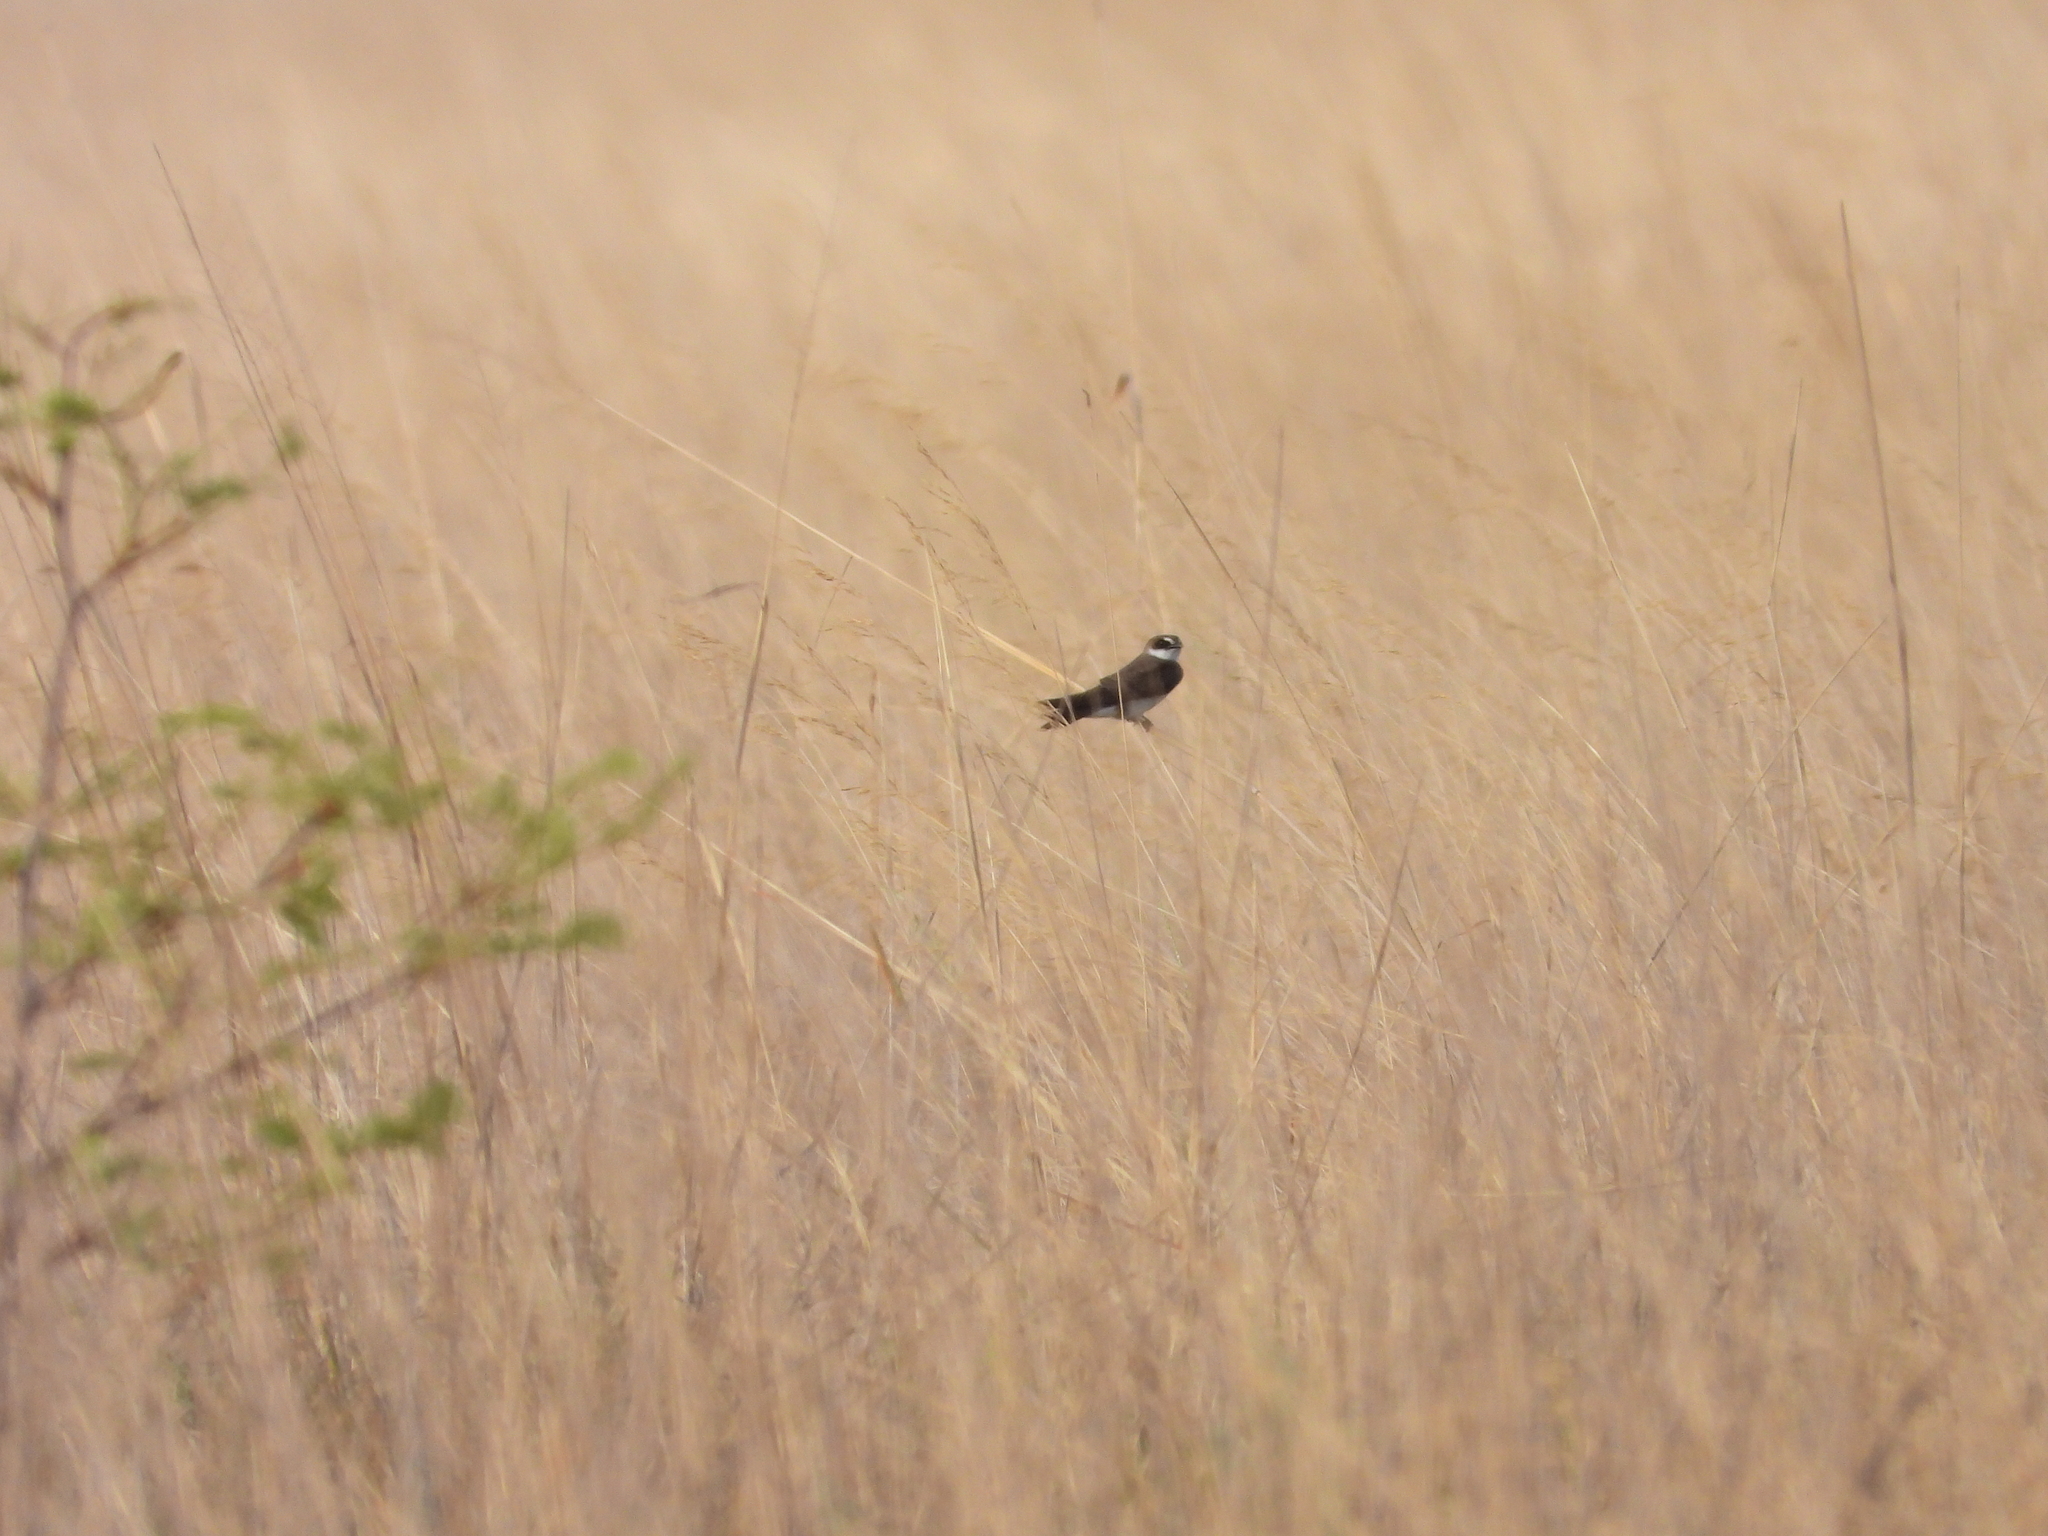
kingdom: Animalia
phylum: Chordata
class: Aves
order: Passeriformes
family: Hirundinidae
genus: Riparia
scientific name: Riparia cincta
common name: Banded martin
